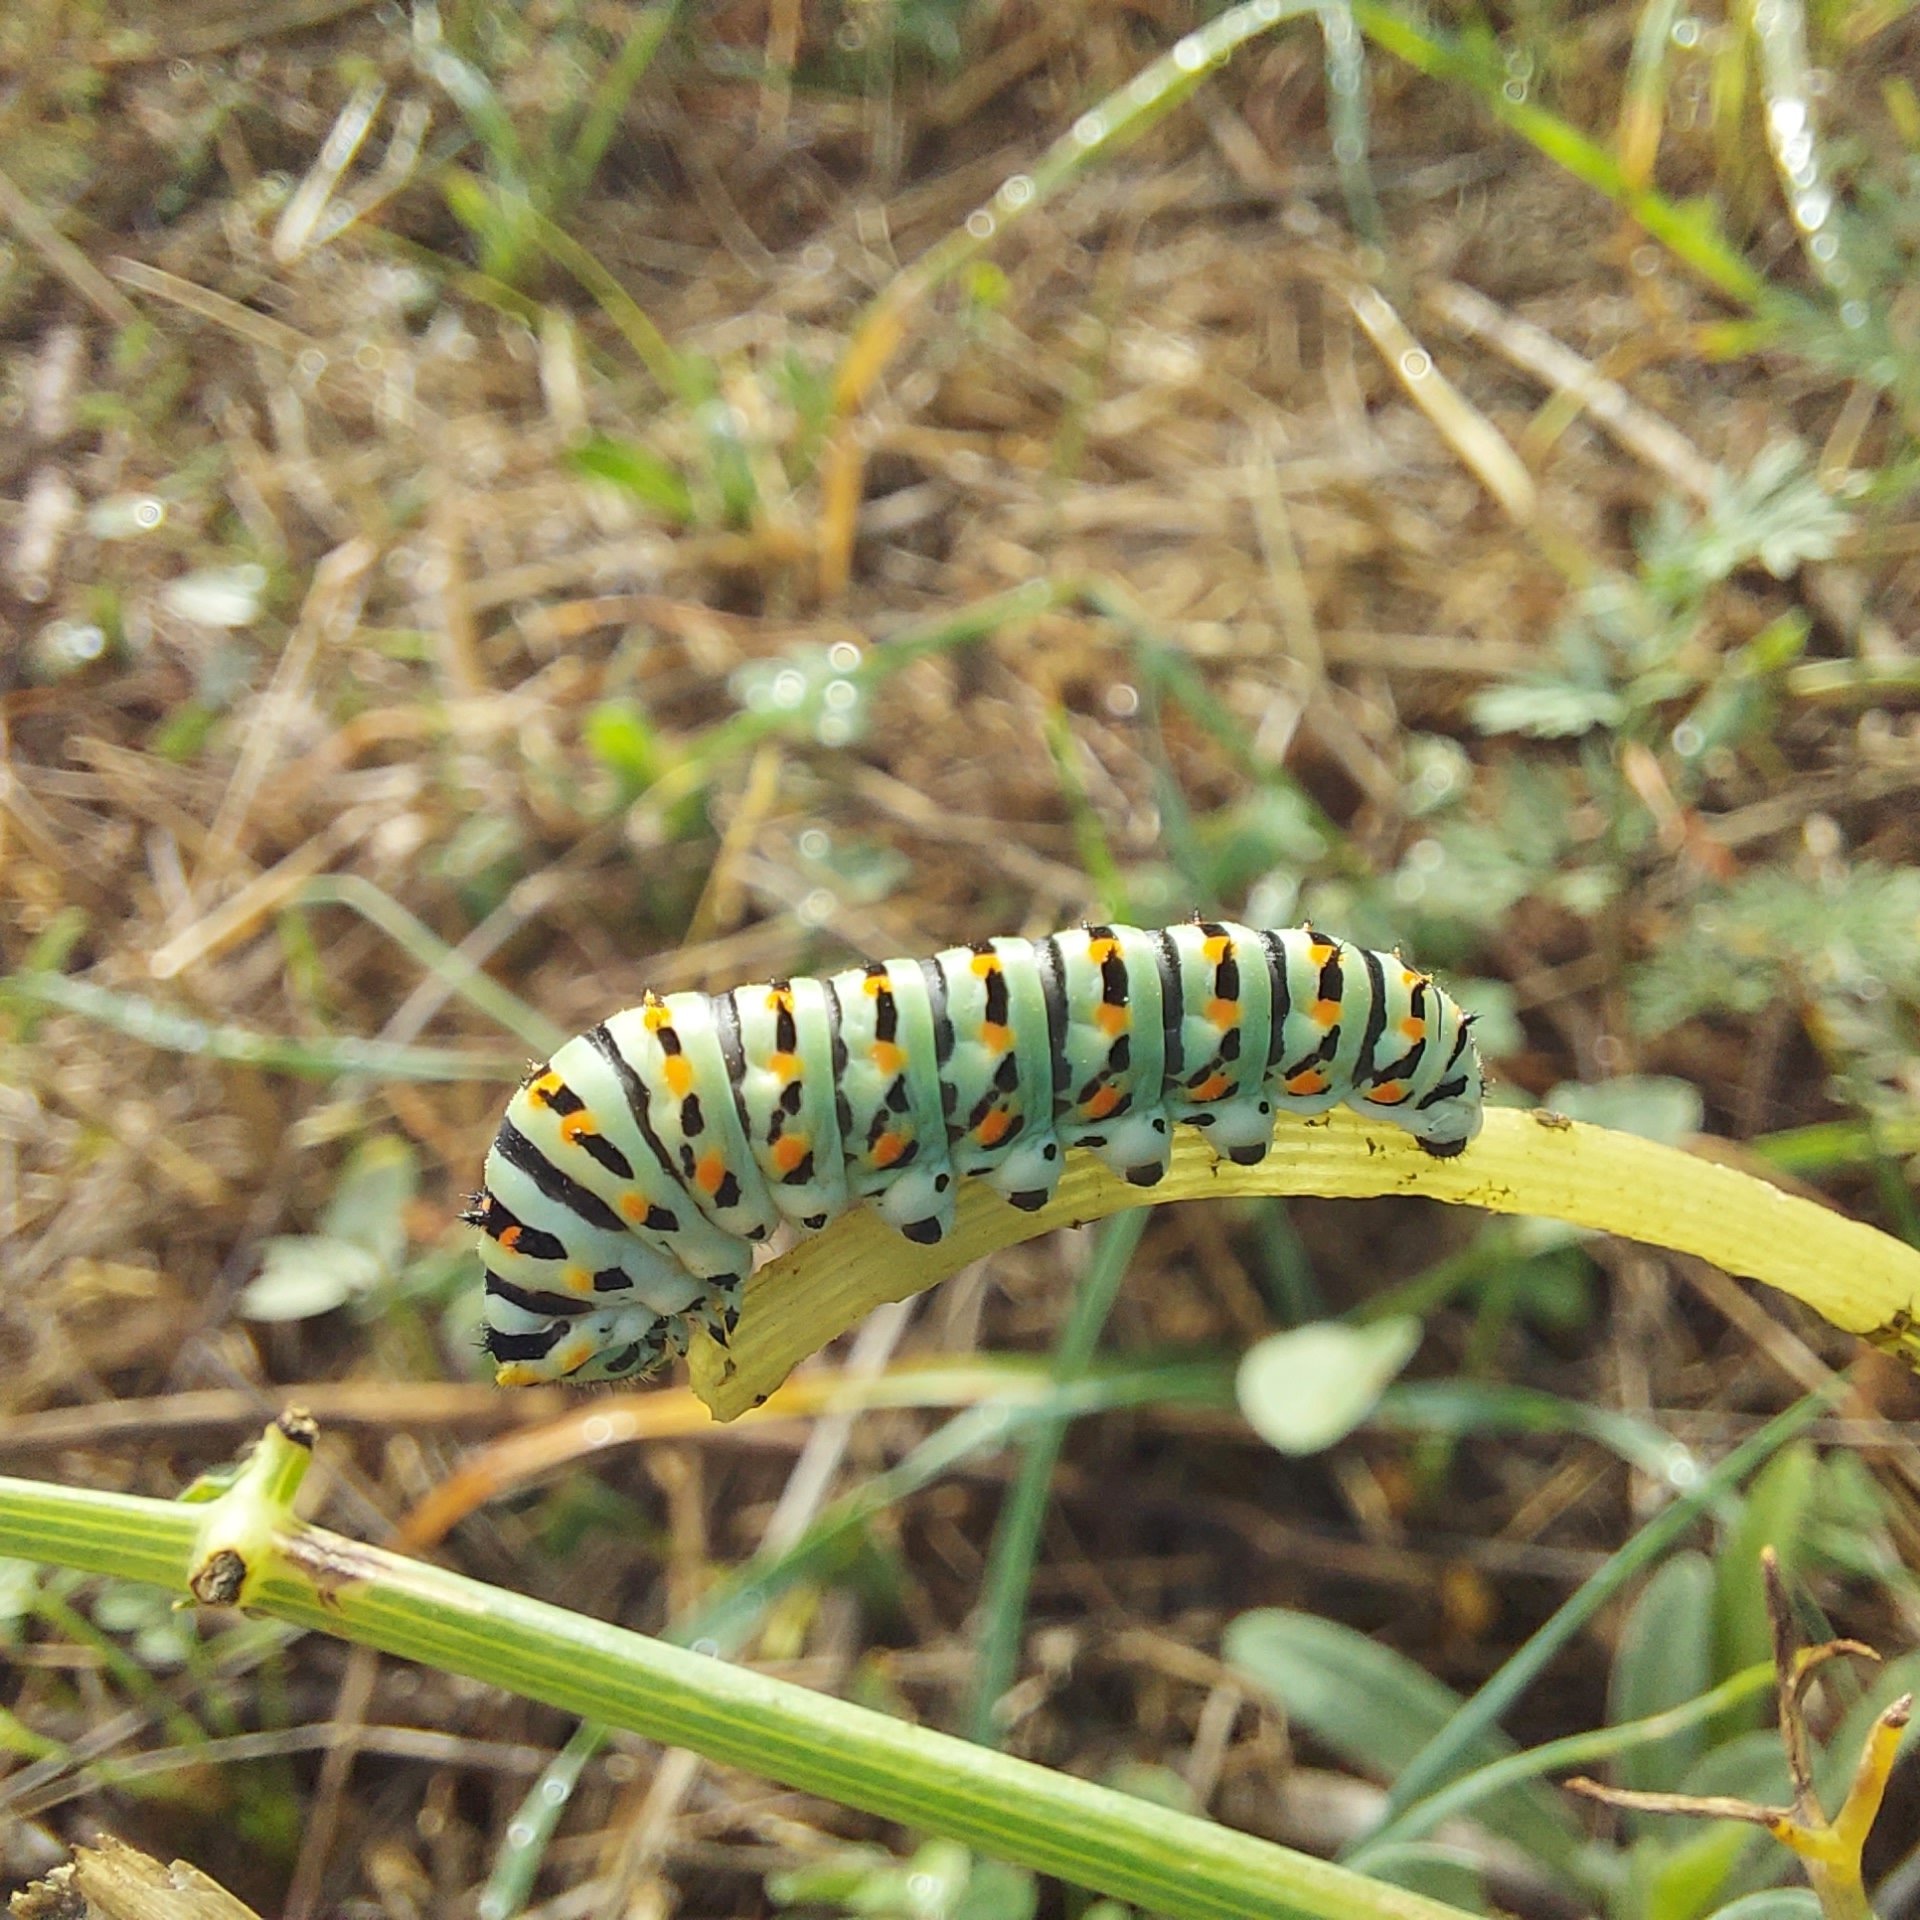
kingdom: Animalia
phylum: Arthropoda
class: Insecta
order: Lepidoptera
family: Papilionidae
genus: Papilio
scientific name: Papilio machaon
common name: Swallowtail
